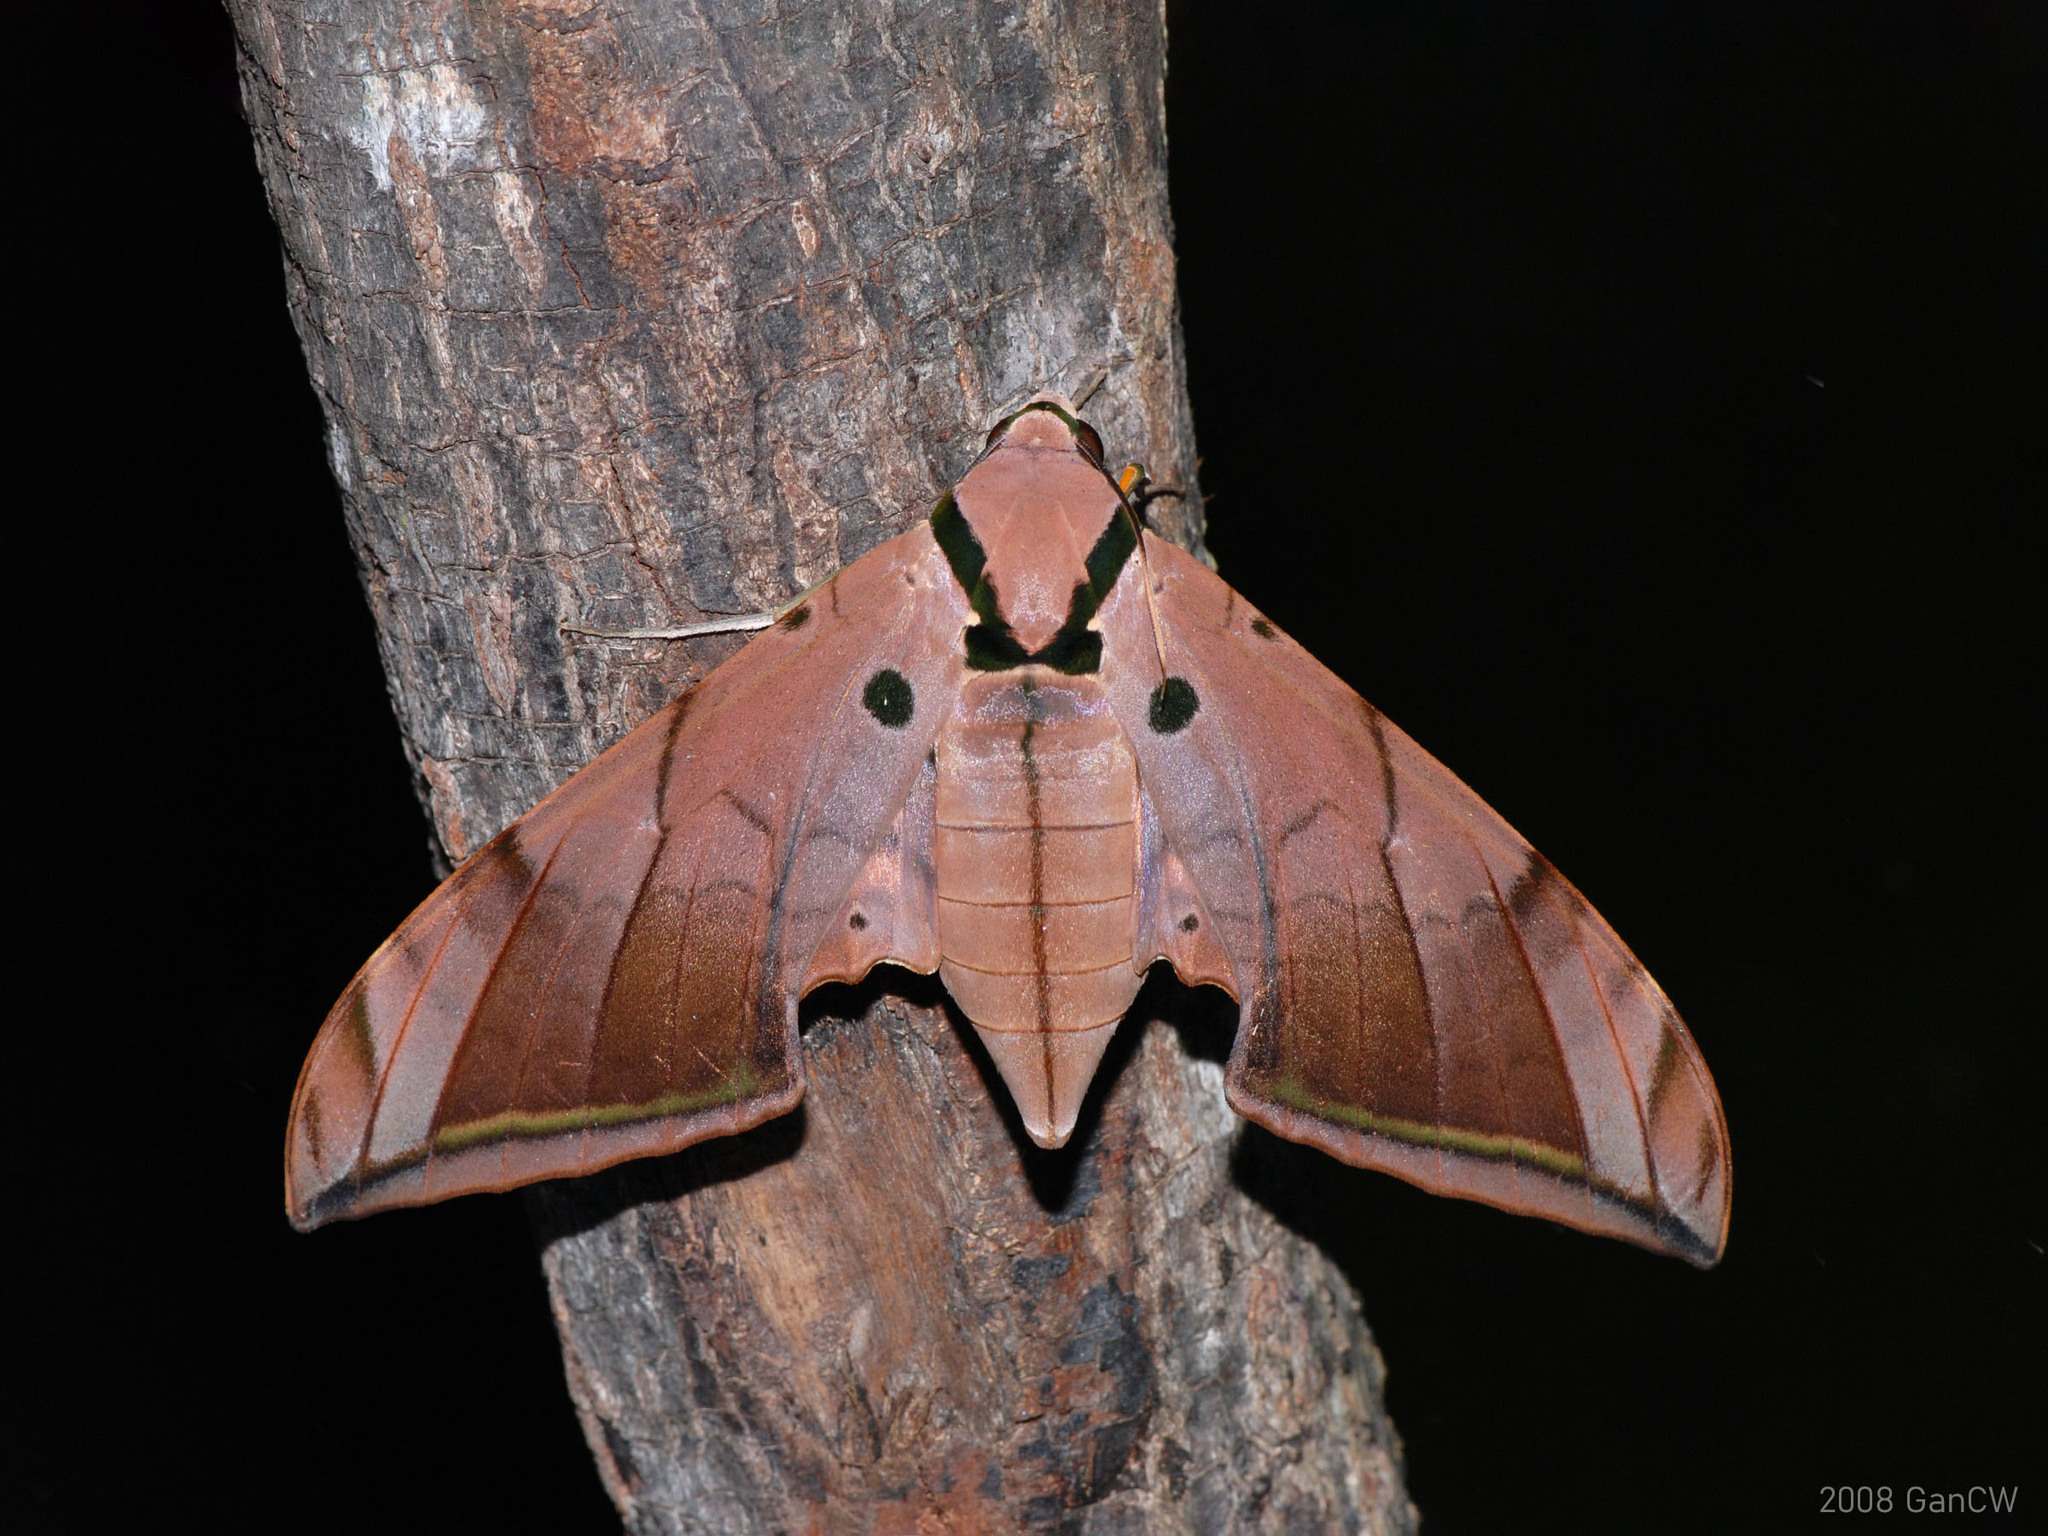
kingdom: Animalia
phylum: Arthropoda
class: Insecta
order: Lepidoptera
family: Sphingidae
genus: Ambulyx
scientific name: Ambulyx pryeri
